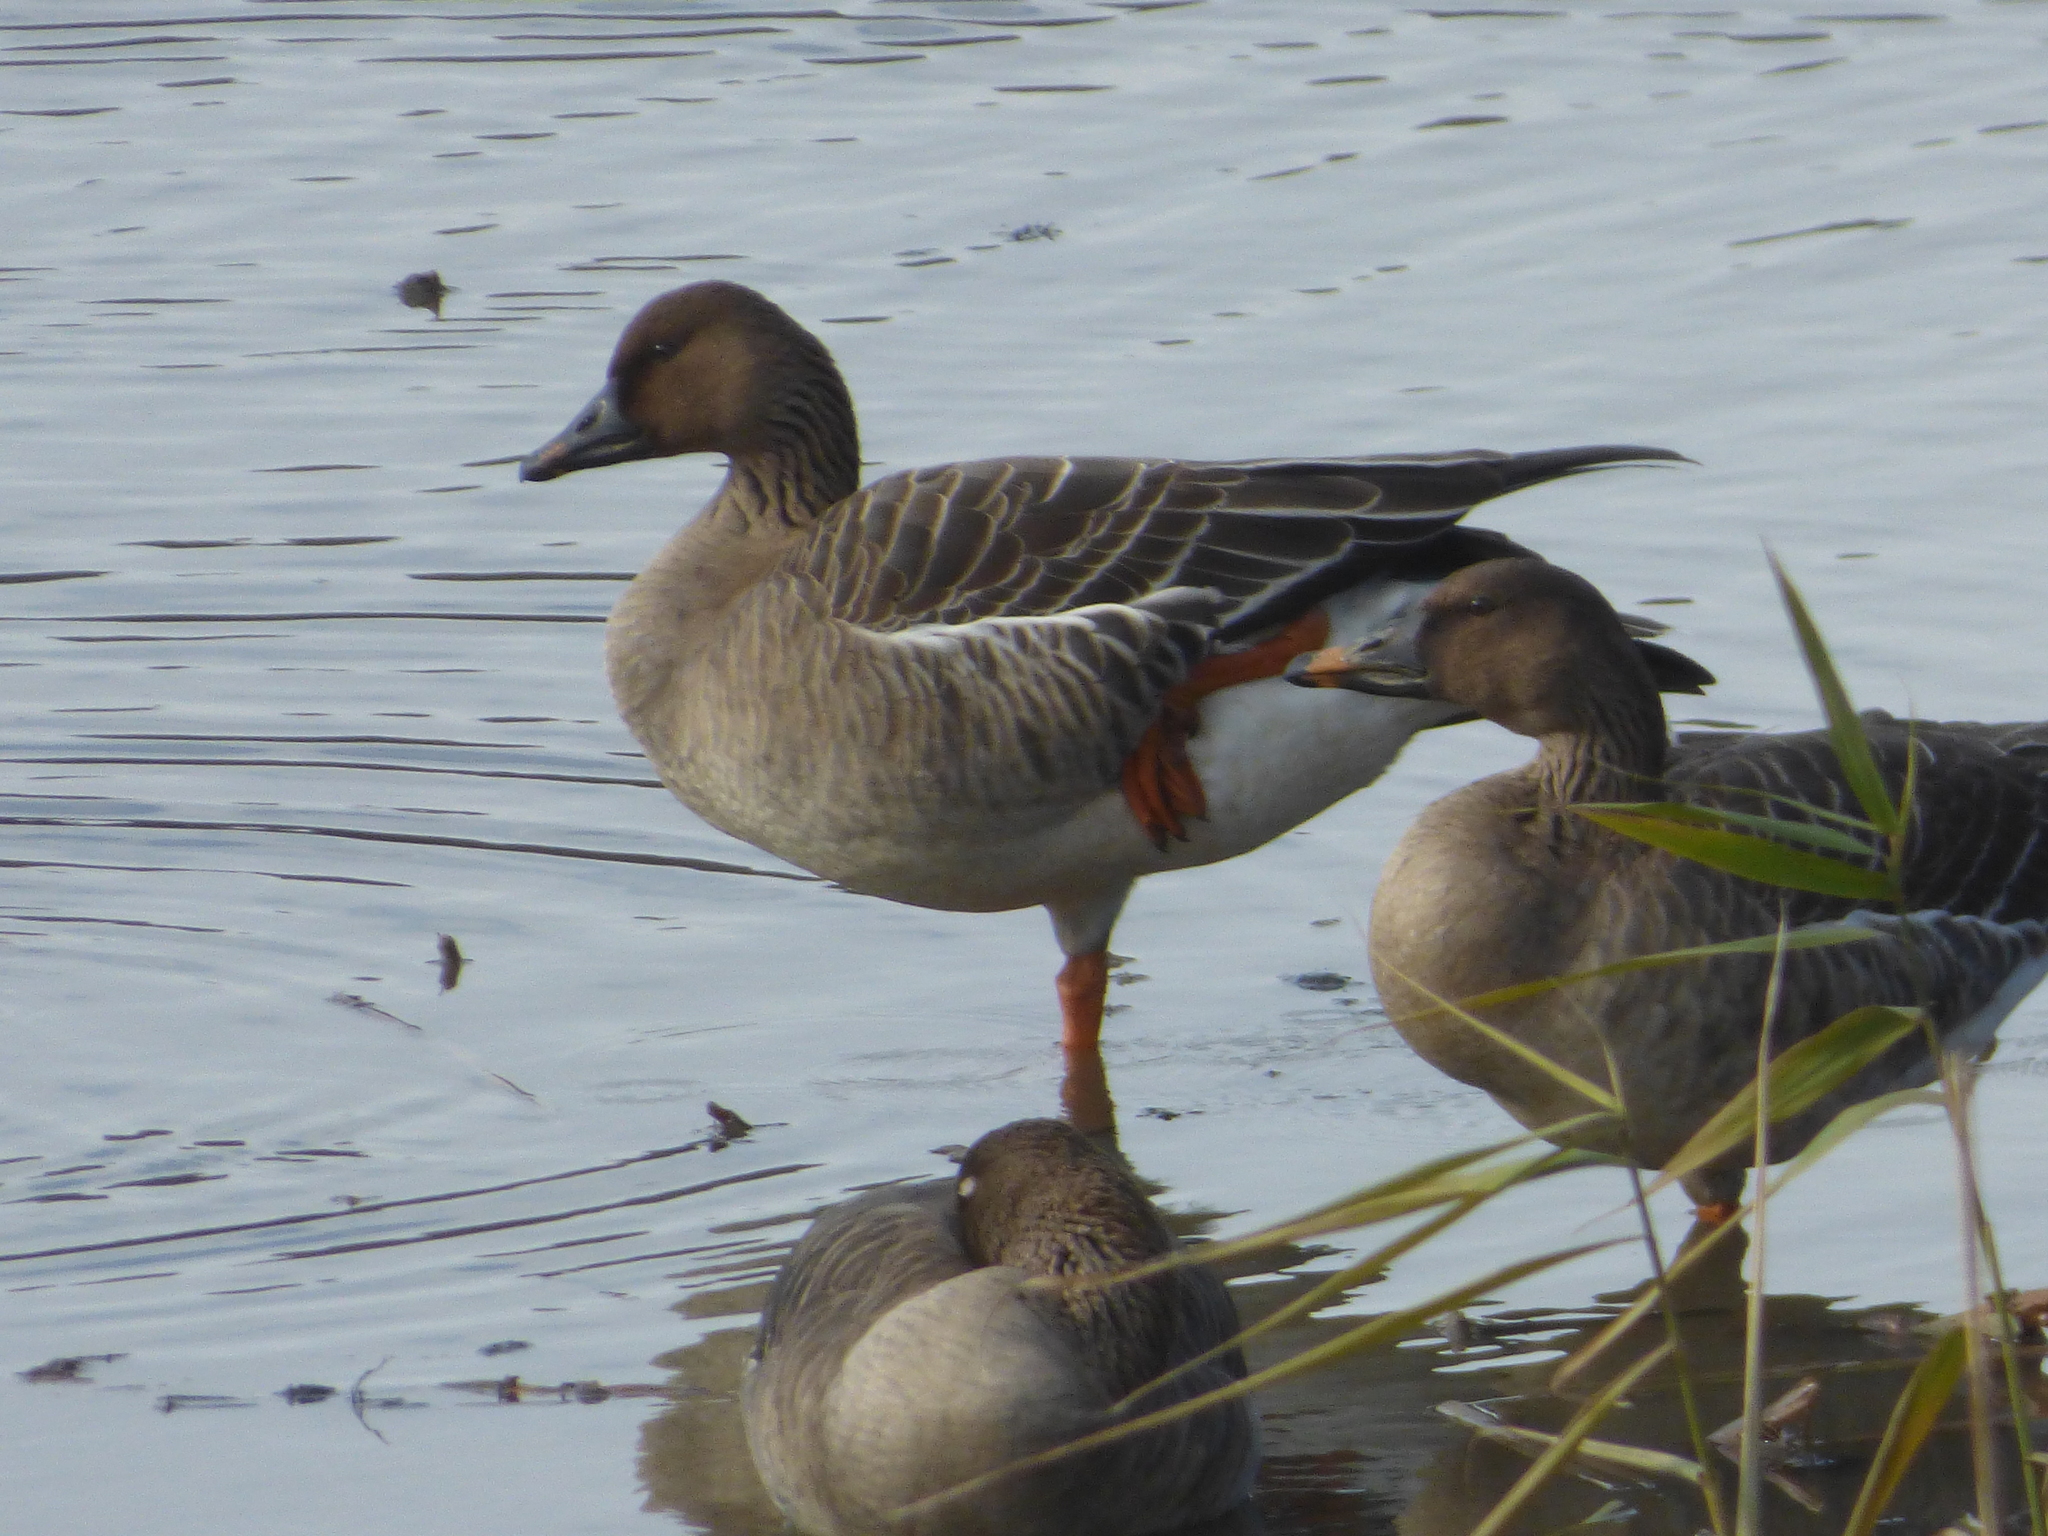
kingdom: Animalia
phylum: Chordata
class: Aves
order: Anseriformes
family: Anatidae
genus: Anser
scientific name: Anser serrirostris
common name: Tundra bean goose
